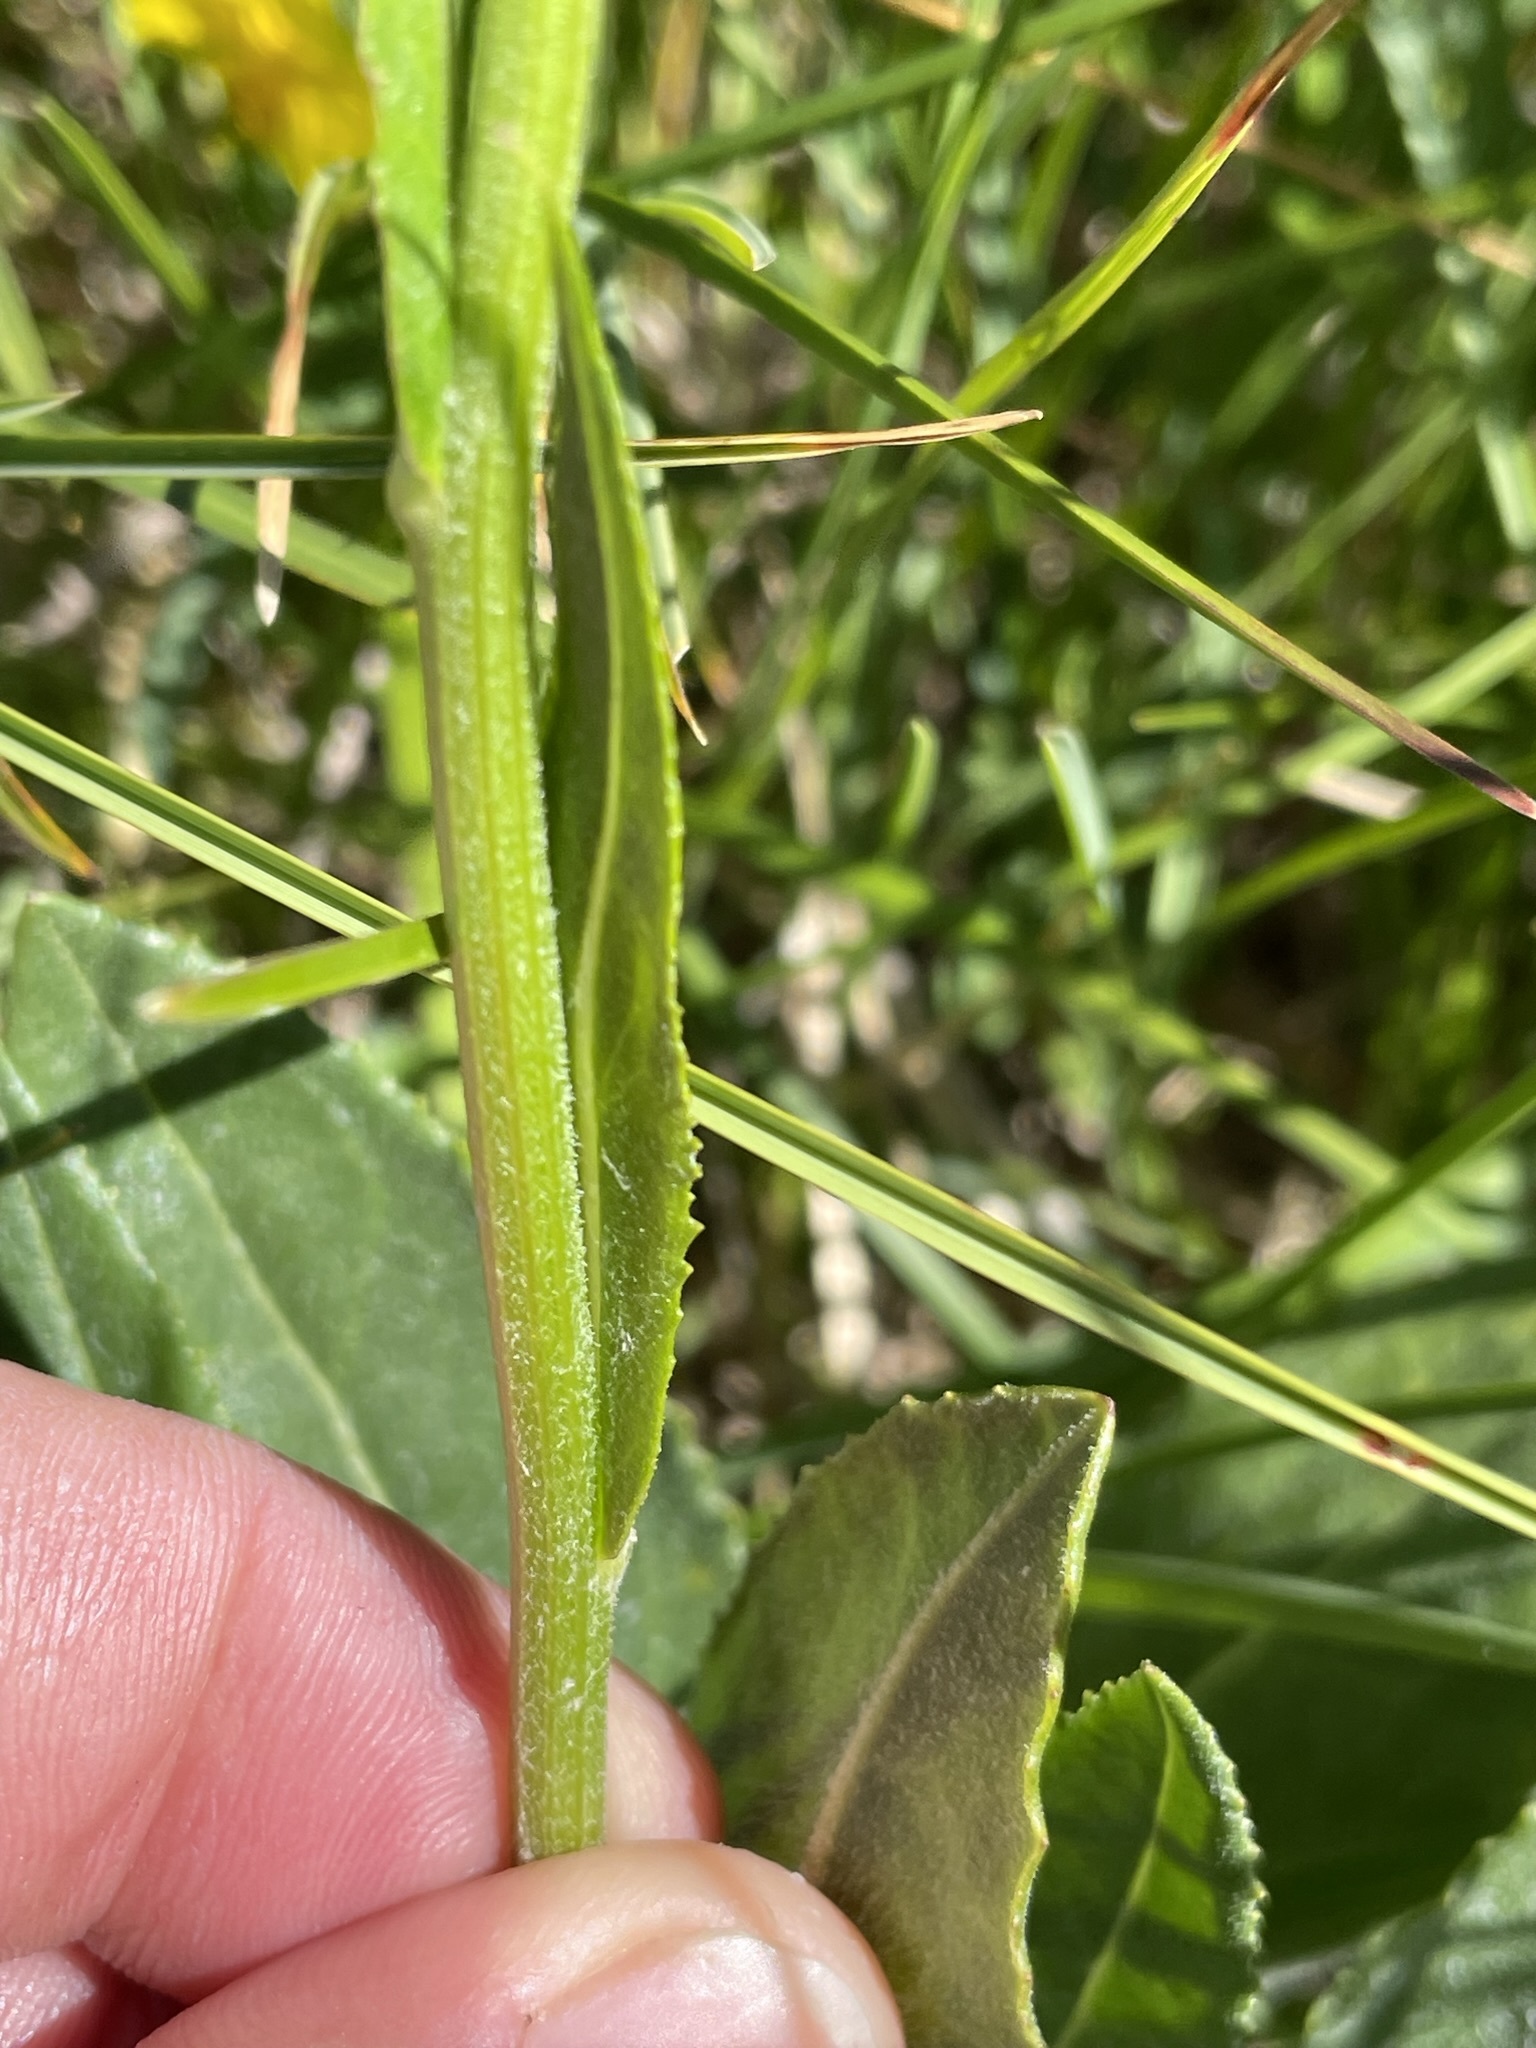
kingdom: Plantae
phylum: Tracheophyta
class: Magnoliopsida
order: Asterales
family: Asteraceae
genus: Senecio
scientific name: Senecio doronicum
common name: Chamois ragwort
